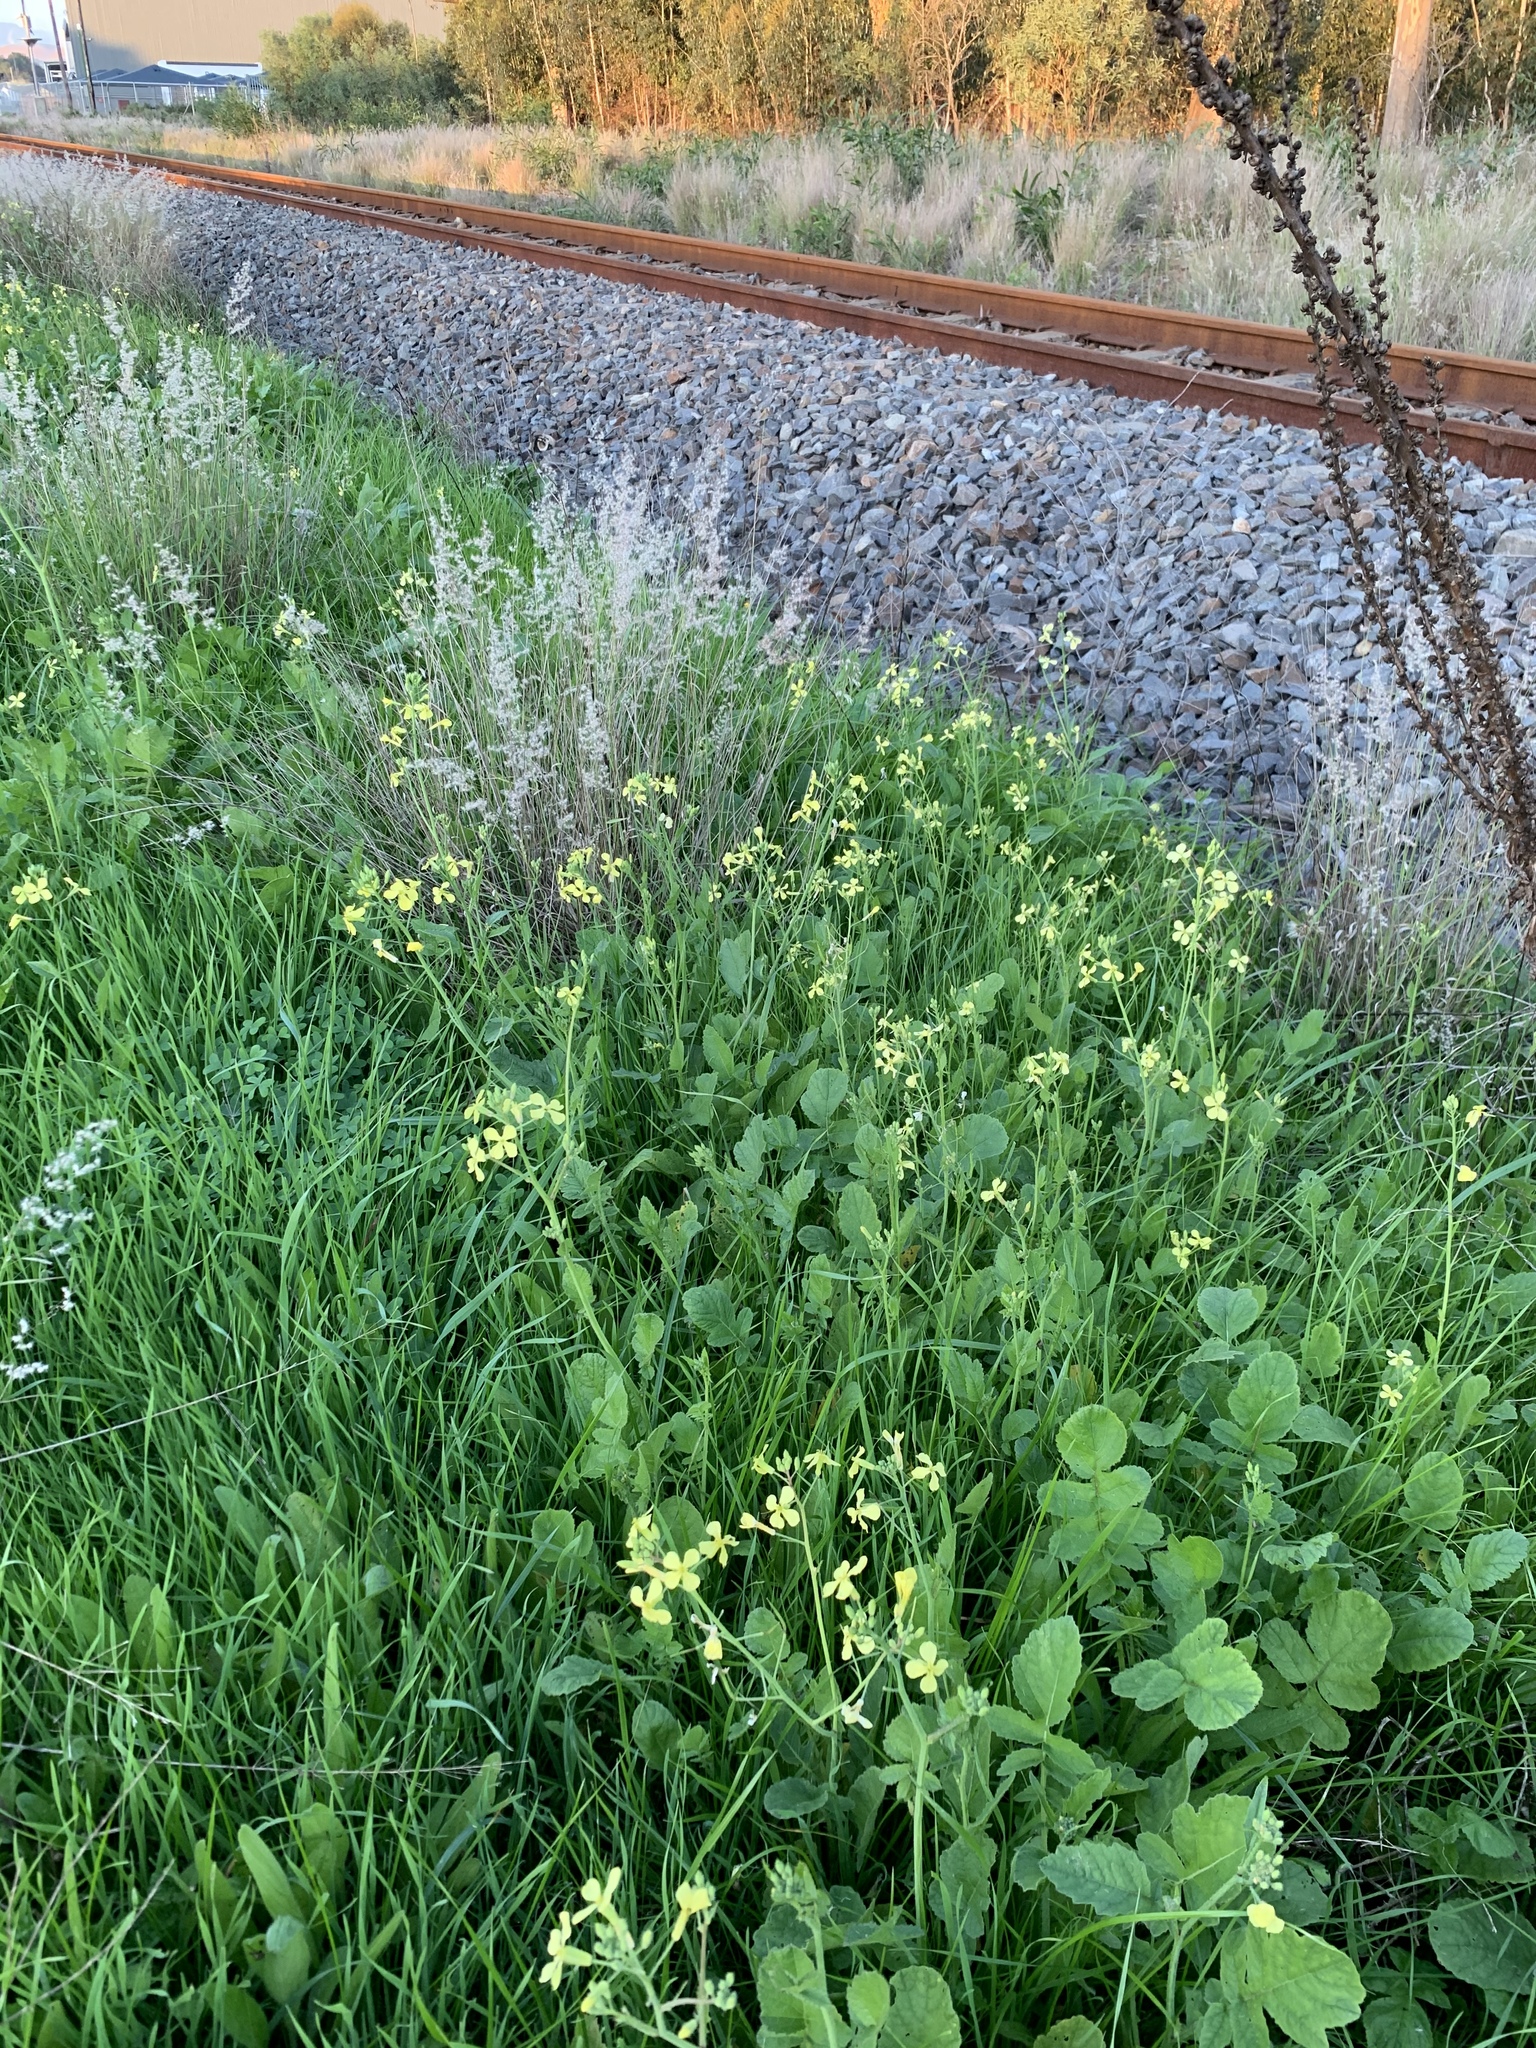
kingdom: Plantae
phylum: Tracheophyta
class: Magnoliopsida
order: Brassicales
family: Brassicaceae
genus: Raphanus
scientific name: Raphanus raphanistrum
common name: Wild radish
